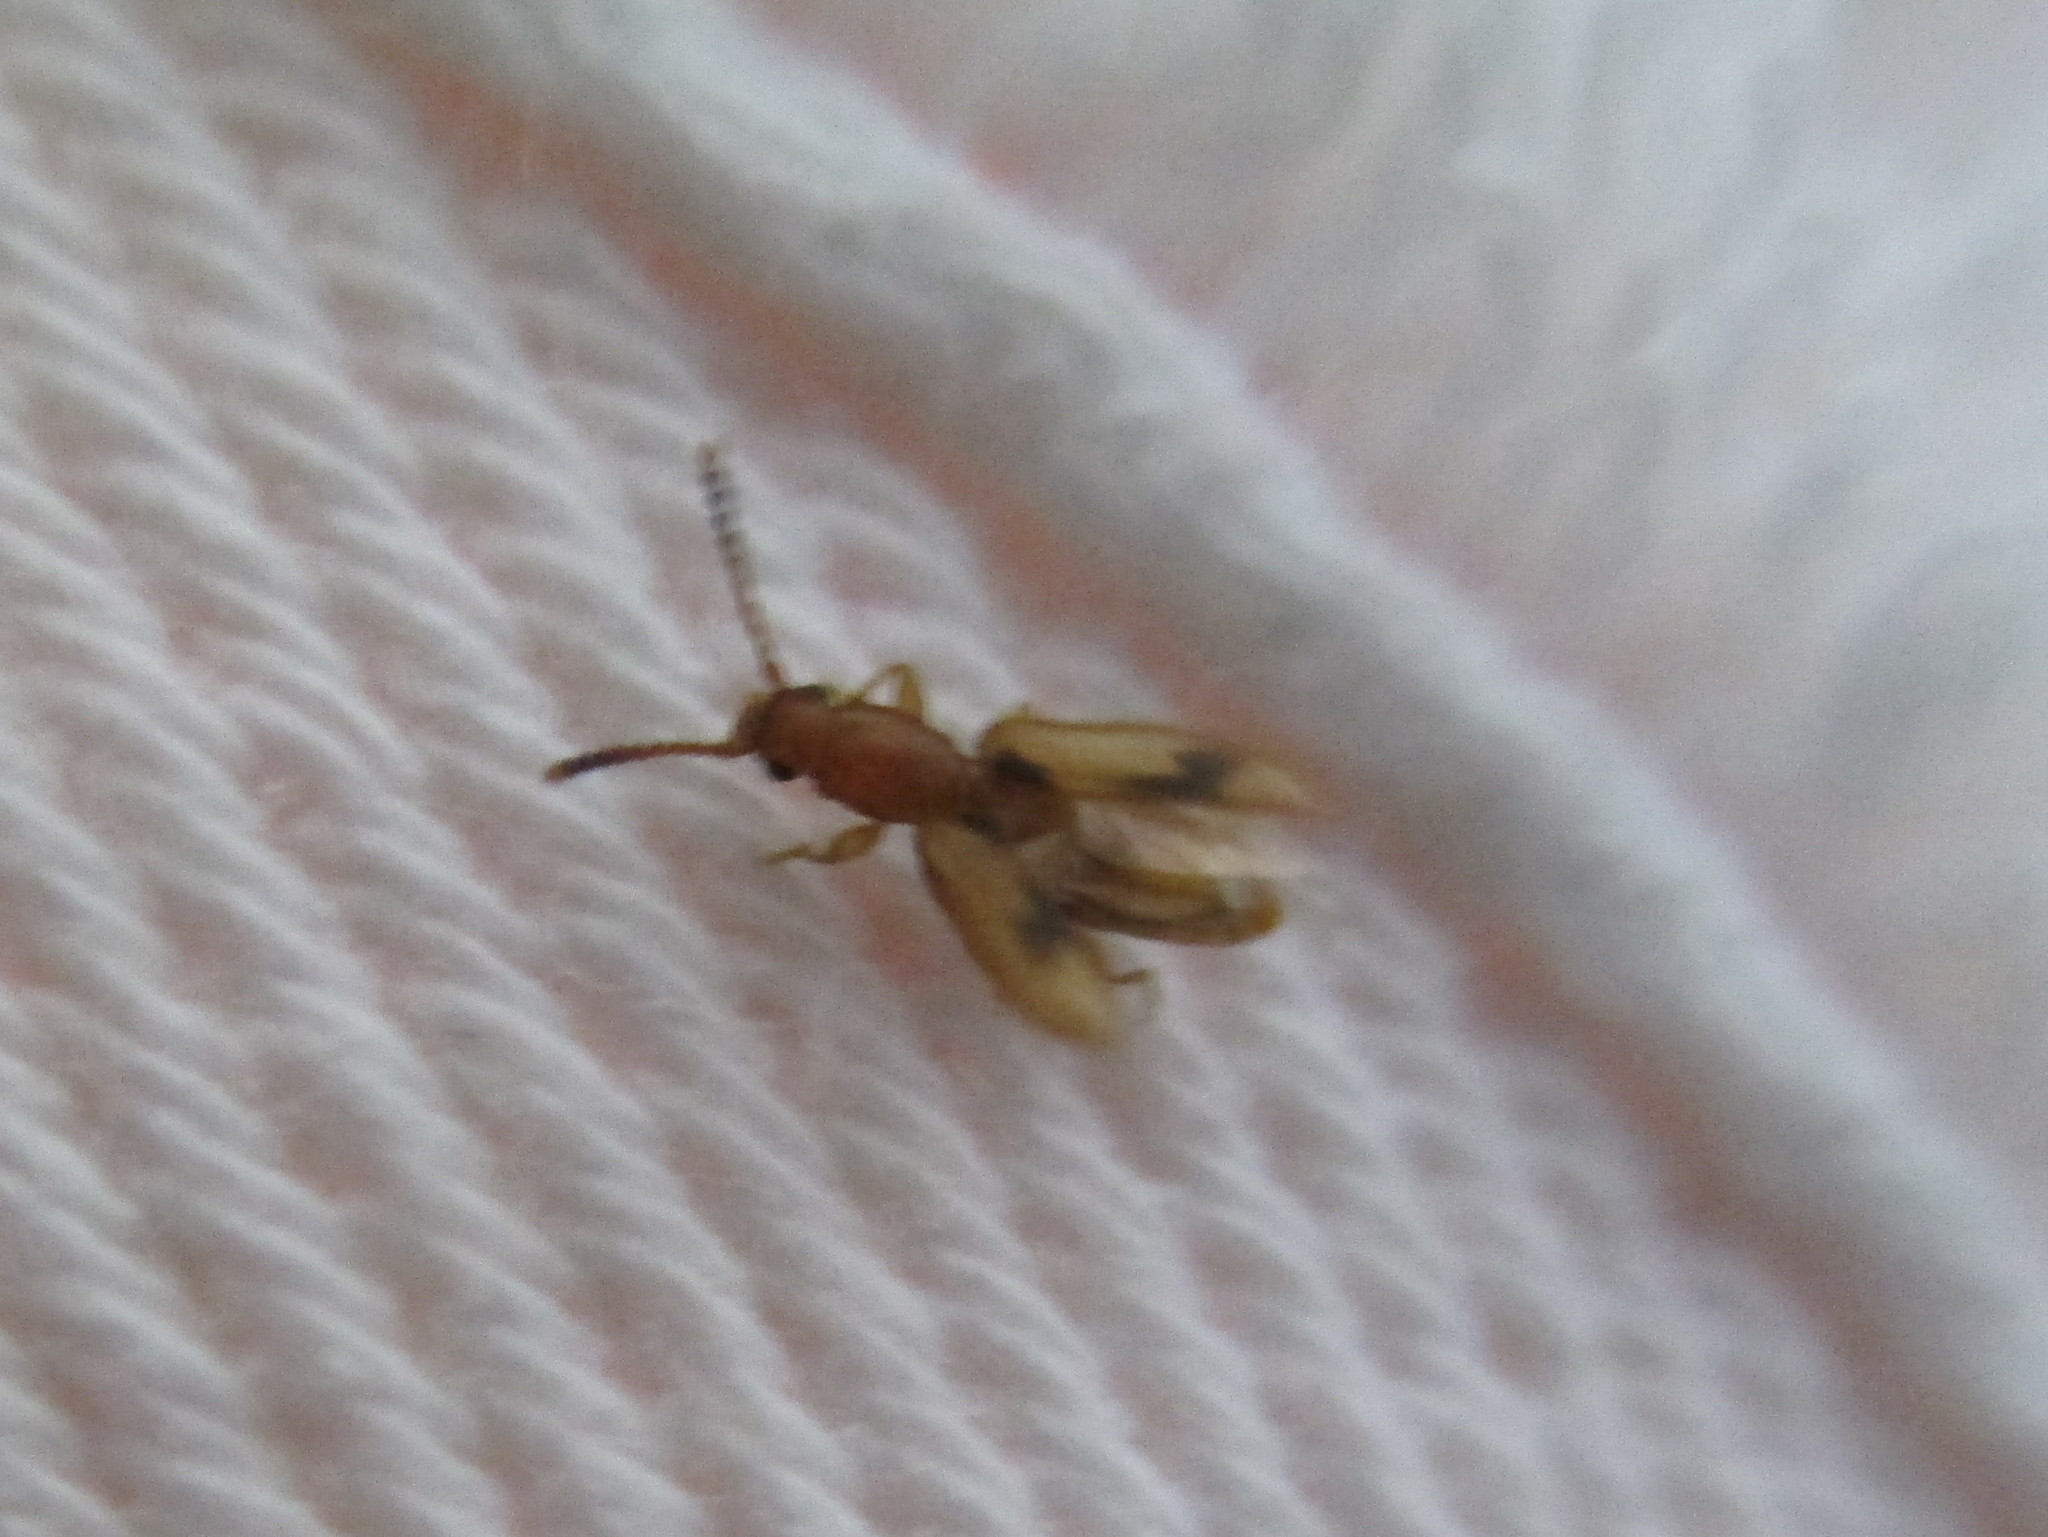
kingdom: Animalia
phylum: Arthropoda
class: Insecta
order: Coleoptera
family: Silvanidae
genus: Cryptamorpha
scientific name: Cryptamorpha desjardinsi
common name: Cryptamorpha
